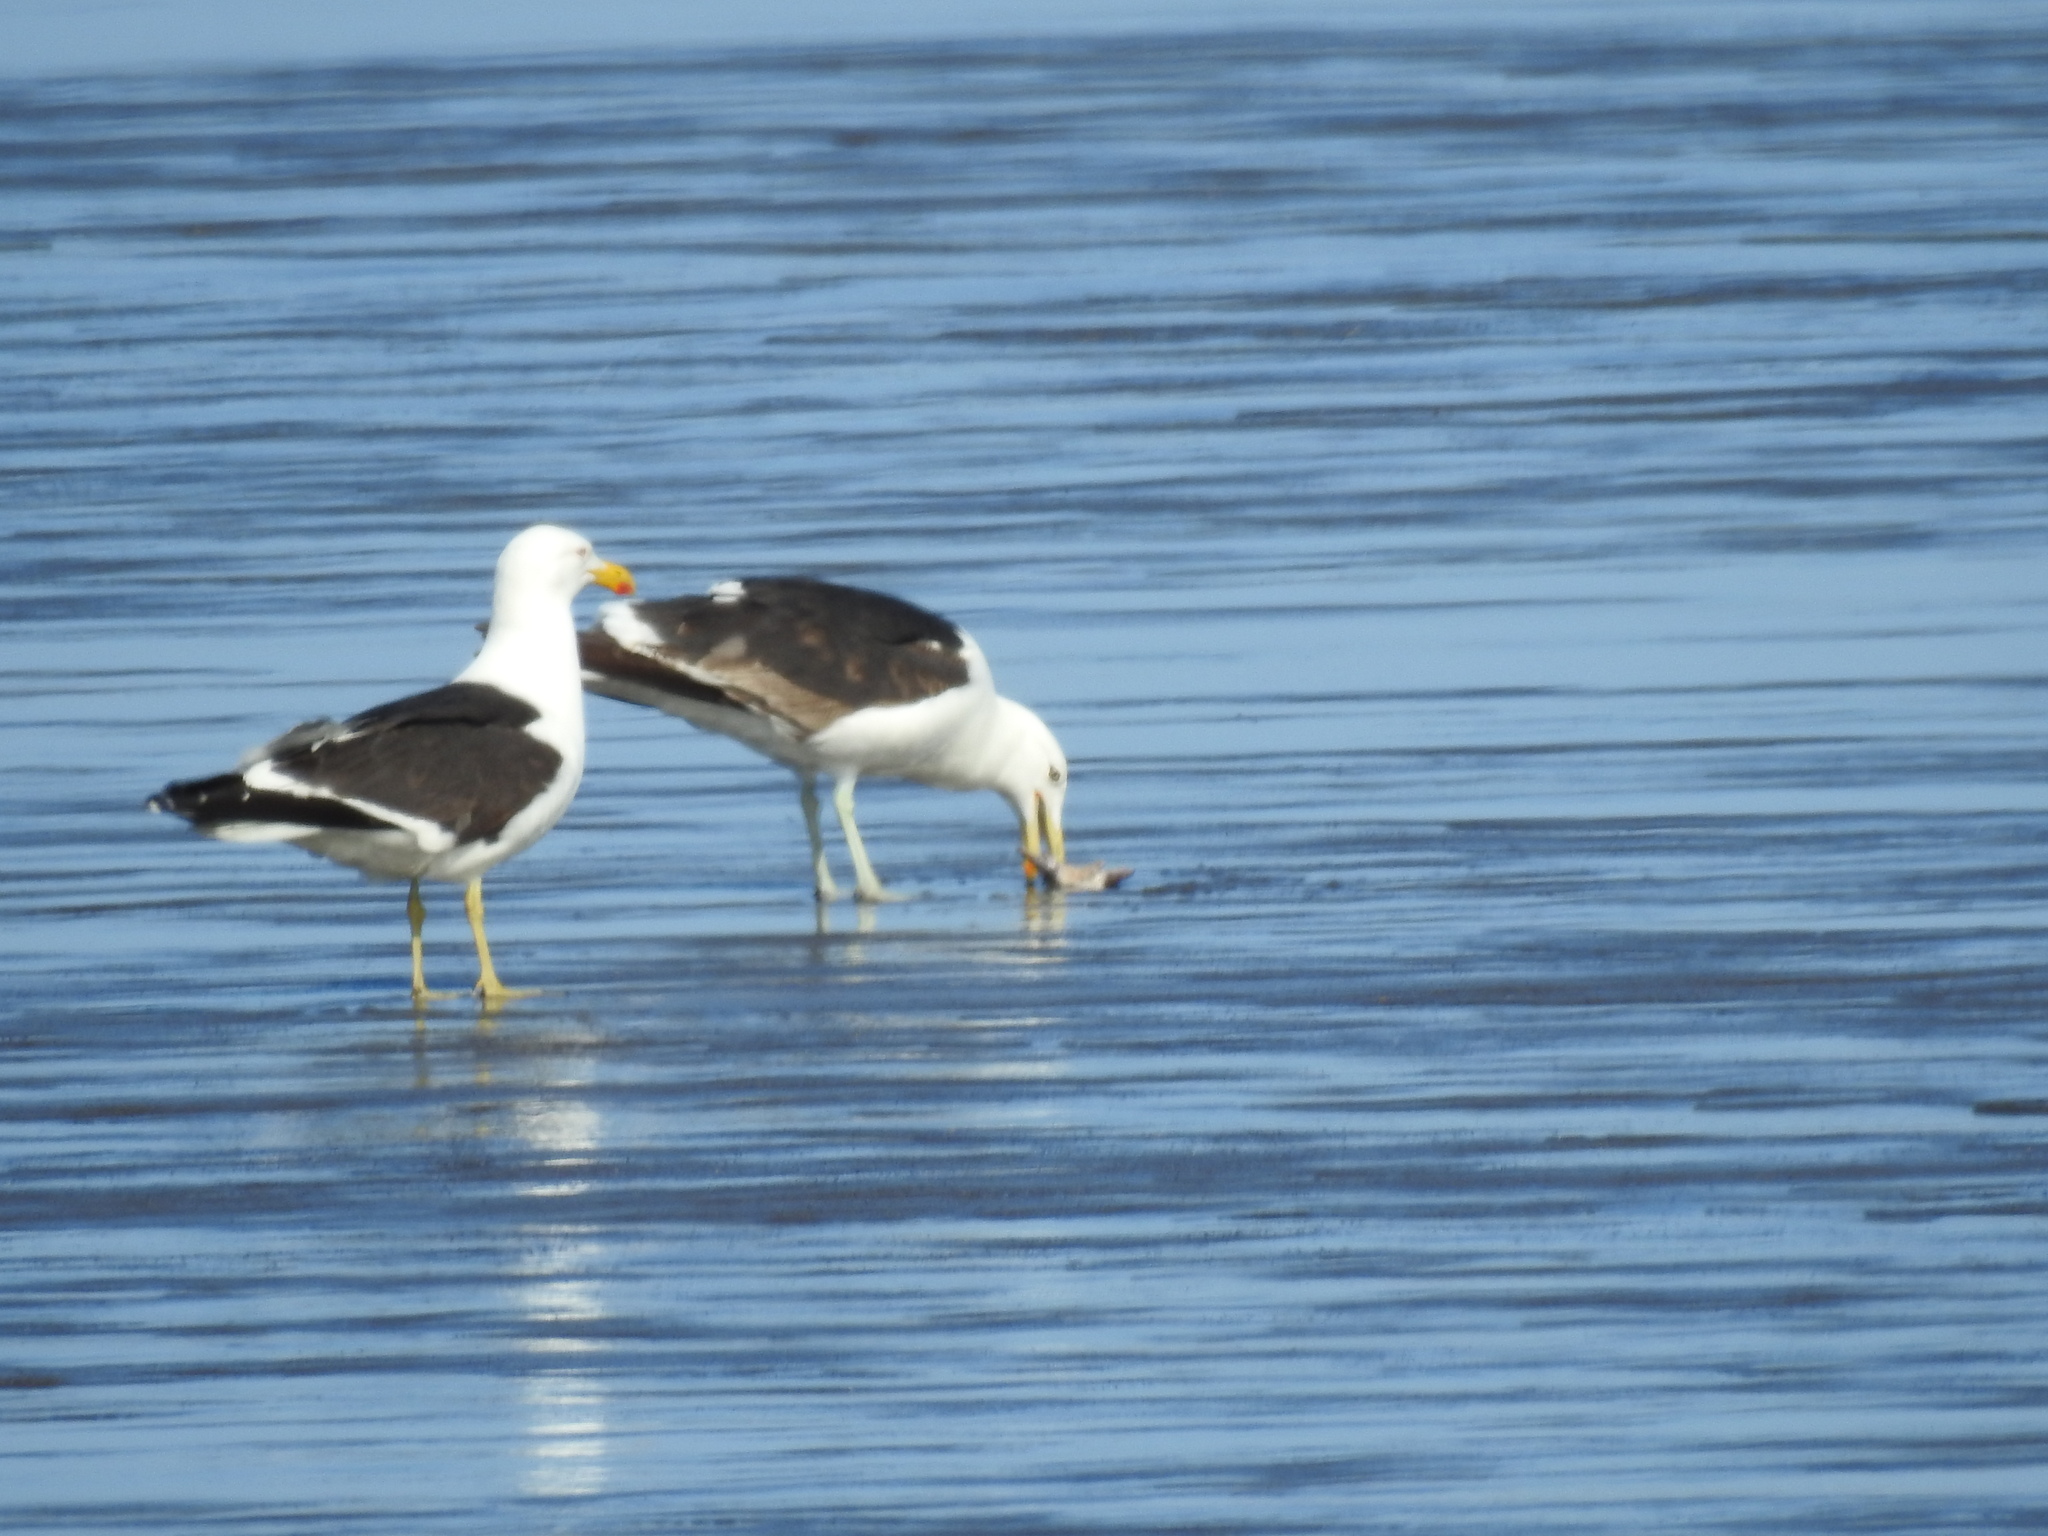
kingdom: Animalia
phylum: Chordata
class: Aves
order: Charadriiformes
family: Laridae
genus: Larus
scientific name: Larus dominicanus
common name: Kelp gull
